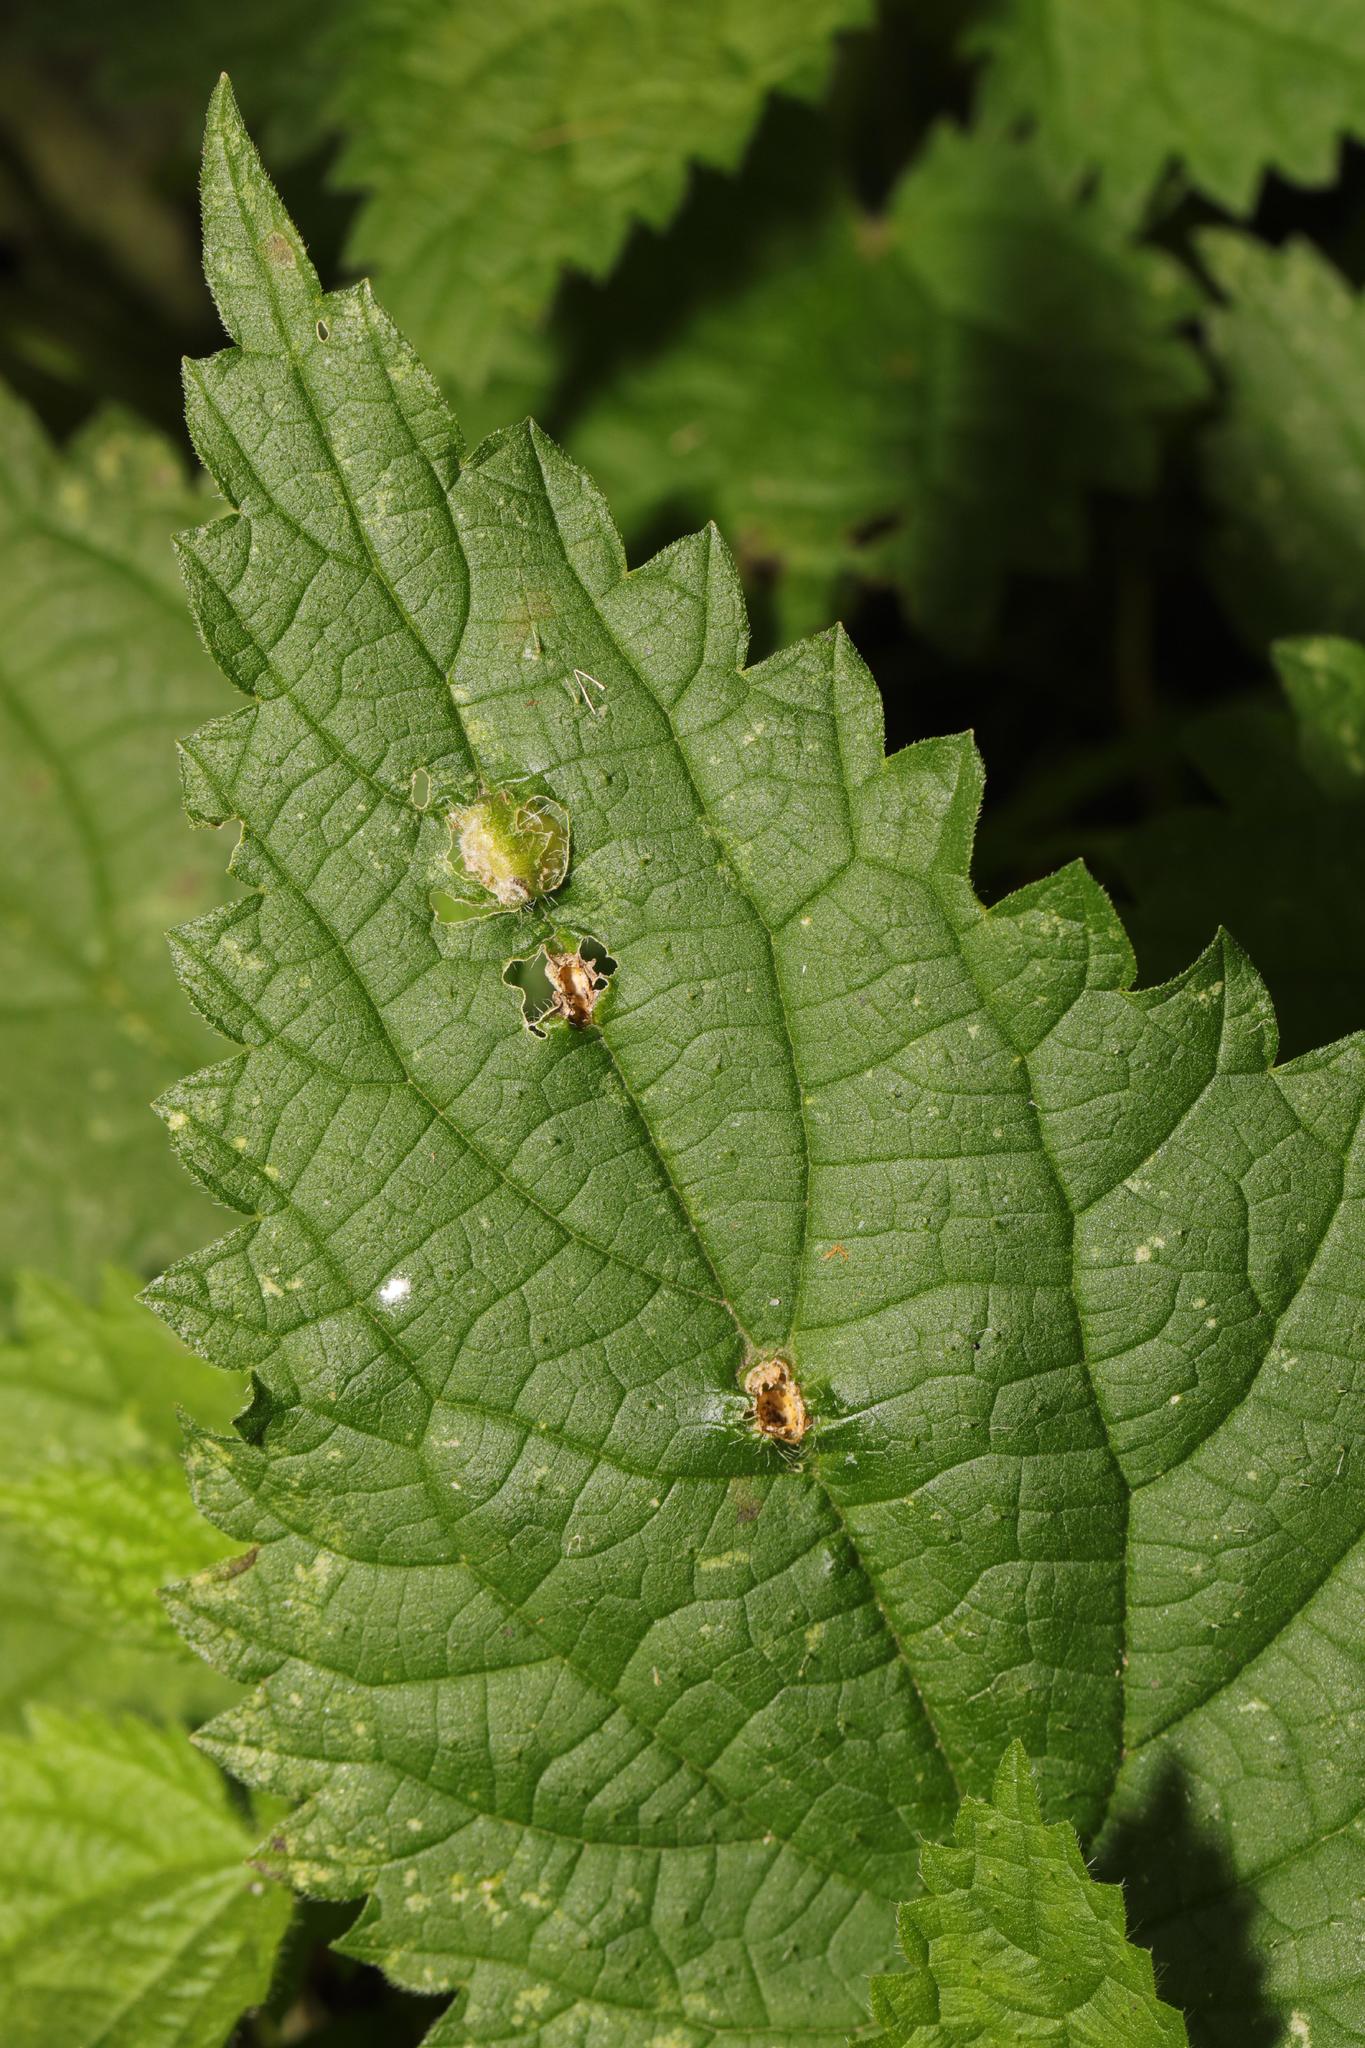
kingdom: Animalia
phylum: Arthropoda
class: Insecta
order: Diptera
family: Cecidomyiidae
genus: Dasineura
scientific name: Dasineura urticae
